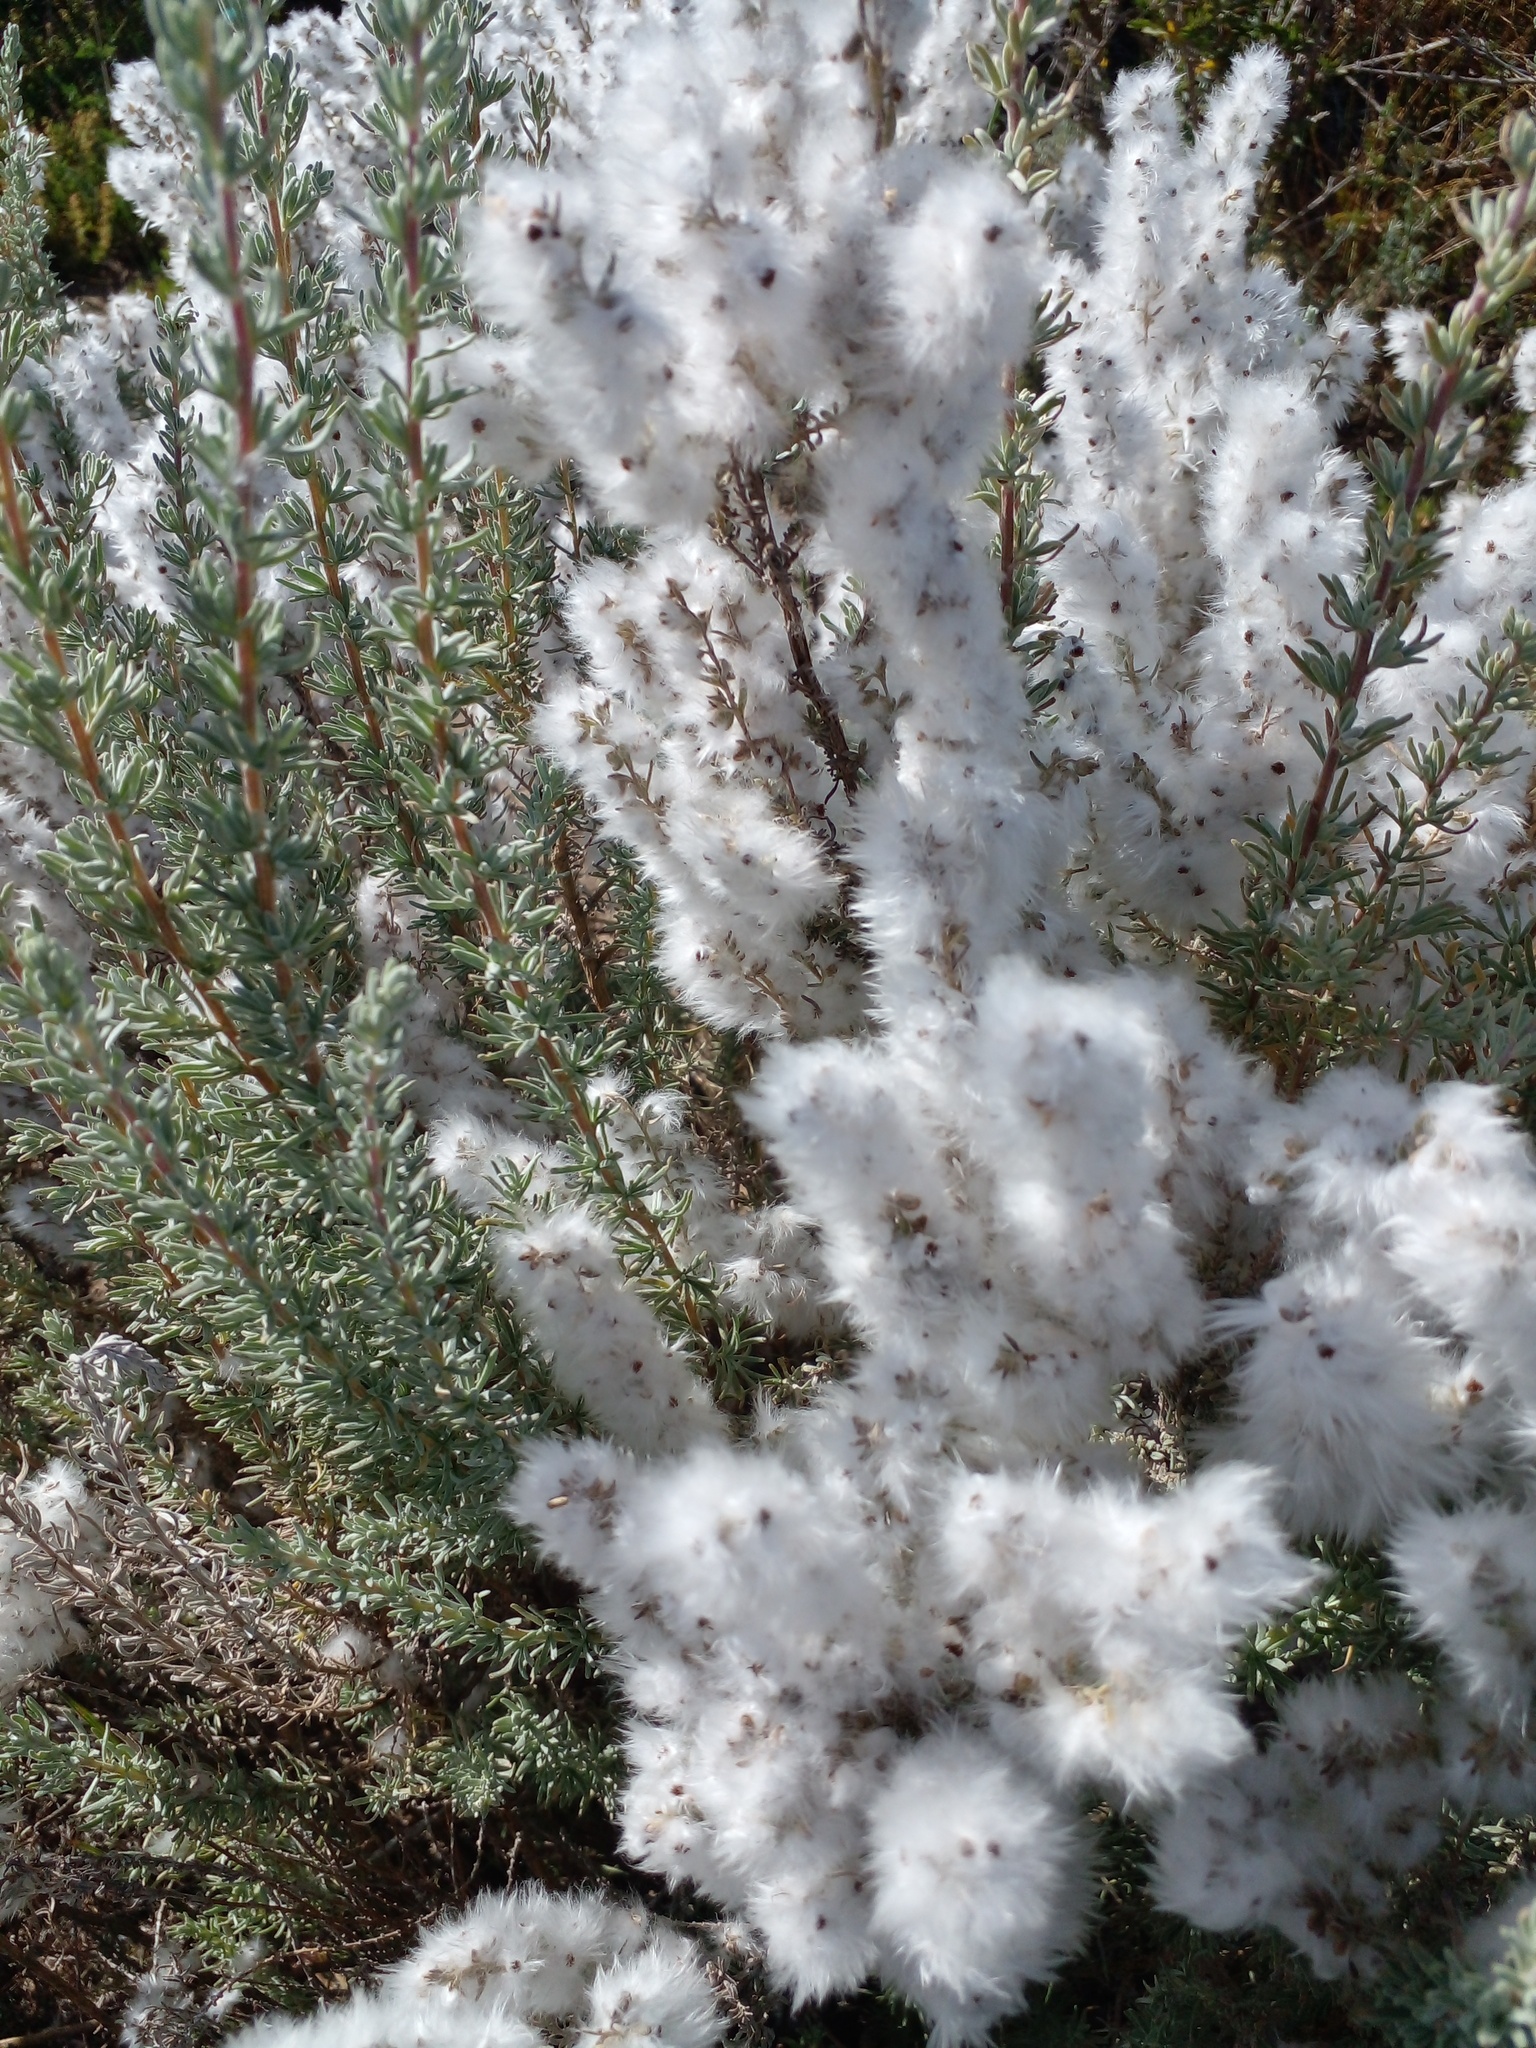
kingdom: Plantae
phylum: Tracheophyta
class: Magnoliopsida
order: Asterales
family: Asteraceae
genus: Eriocephalus
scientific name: Eriocephalus racemosus
